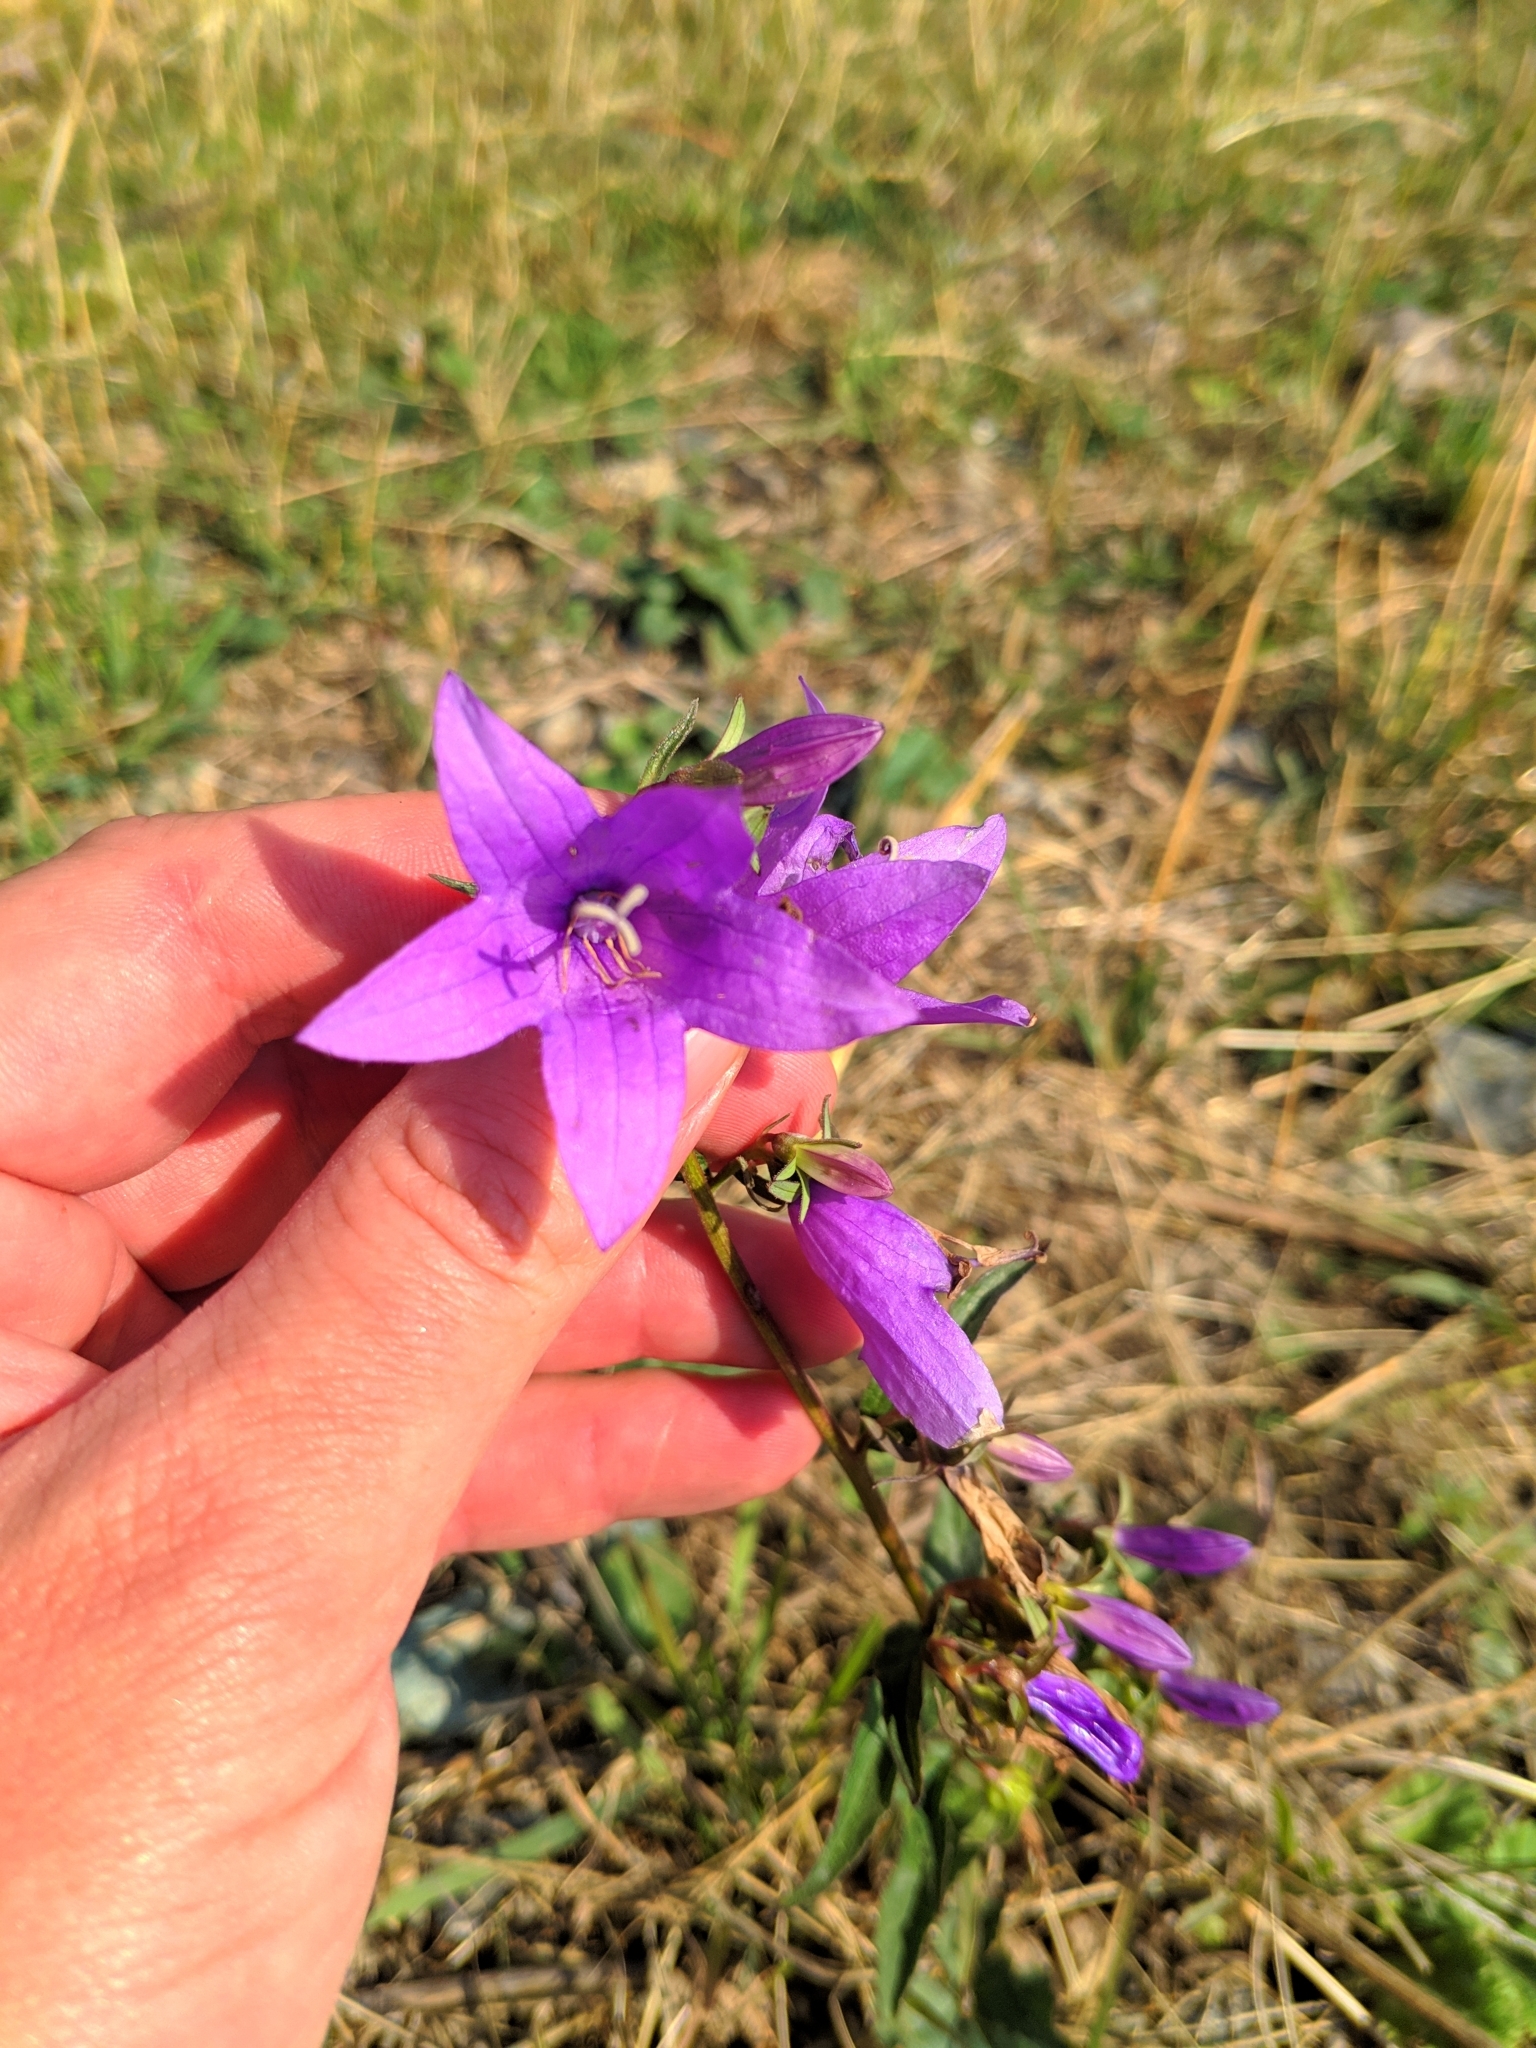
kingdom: Plantae
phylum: Tracheophyta
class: Magnoliopsida
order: Asterales
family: Campanulaceae
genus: Campanula
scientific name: Campanula rapunculoides
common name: Creeping bellflower
